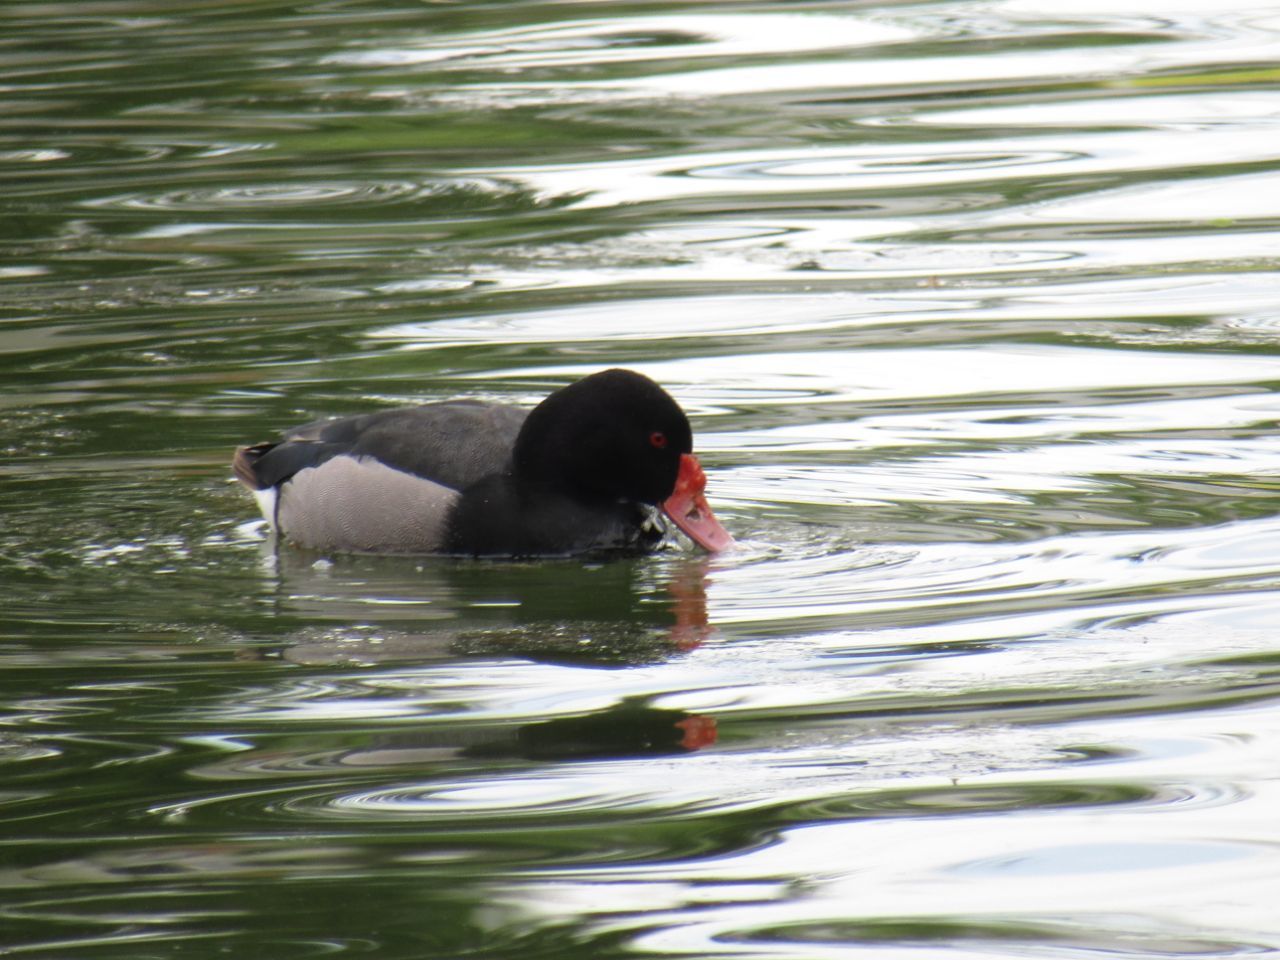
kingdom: Animalia
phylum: Chordata
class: Aves
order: Anseriformes
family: Anatidae
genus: Netta
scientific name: Netta peposaca
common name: Rosy-billed pochard
